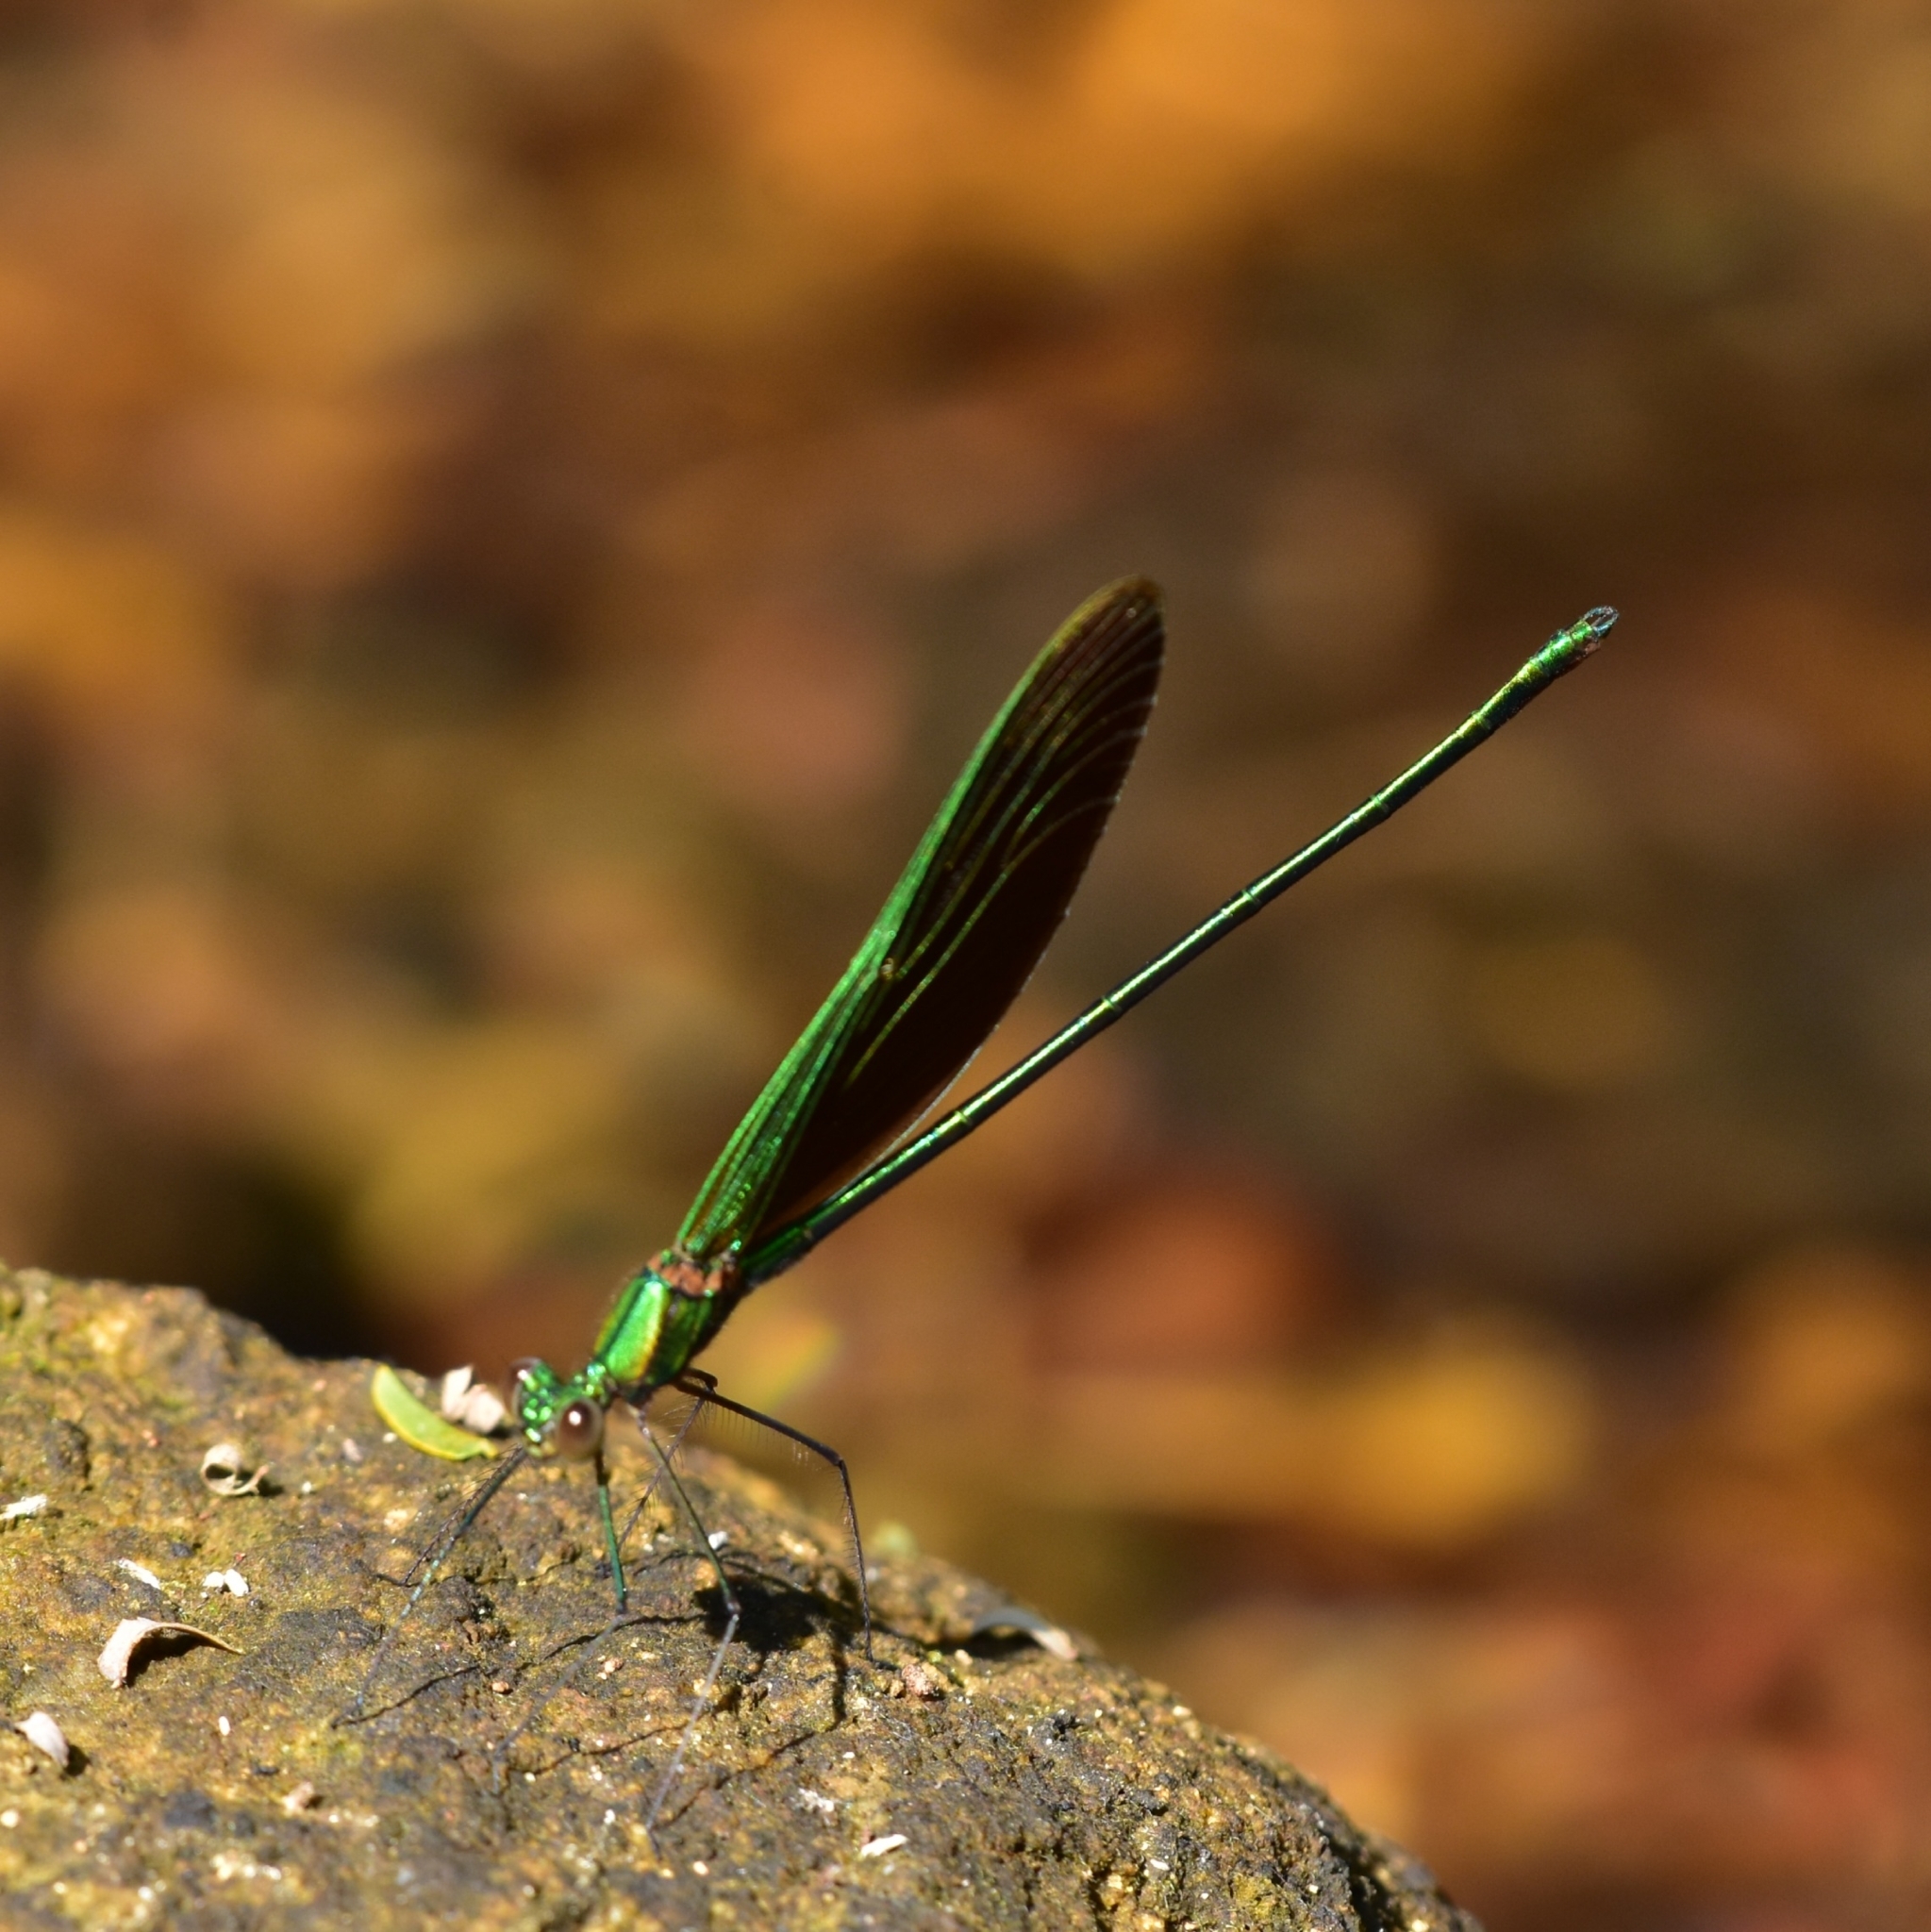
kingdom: Animalia
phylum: Arthropoda
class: Insecta
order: Odonata
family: Calopterygidae
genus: Neurobasis
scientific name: Neurobasis chinensis
